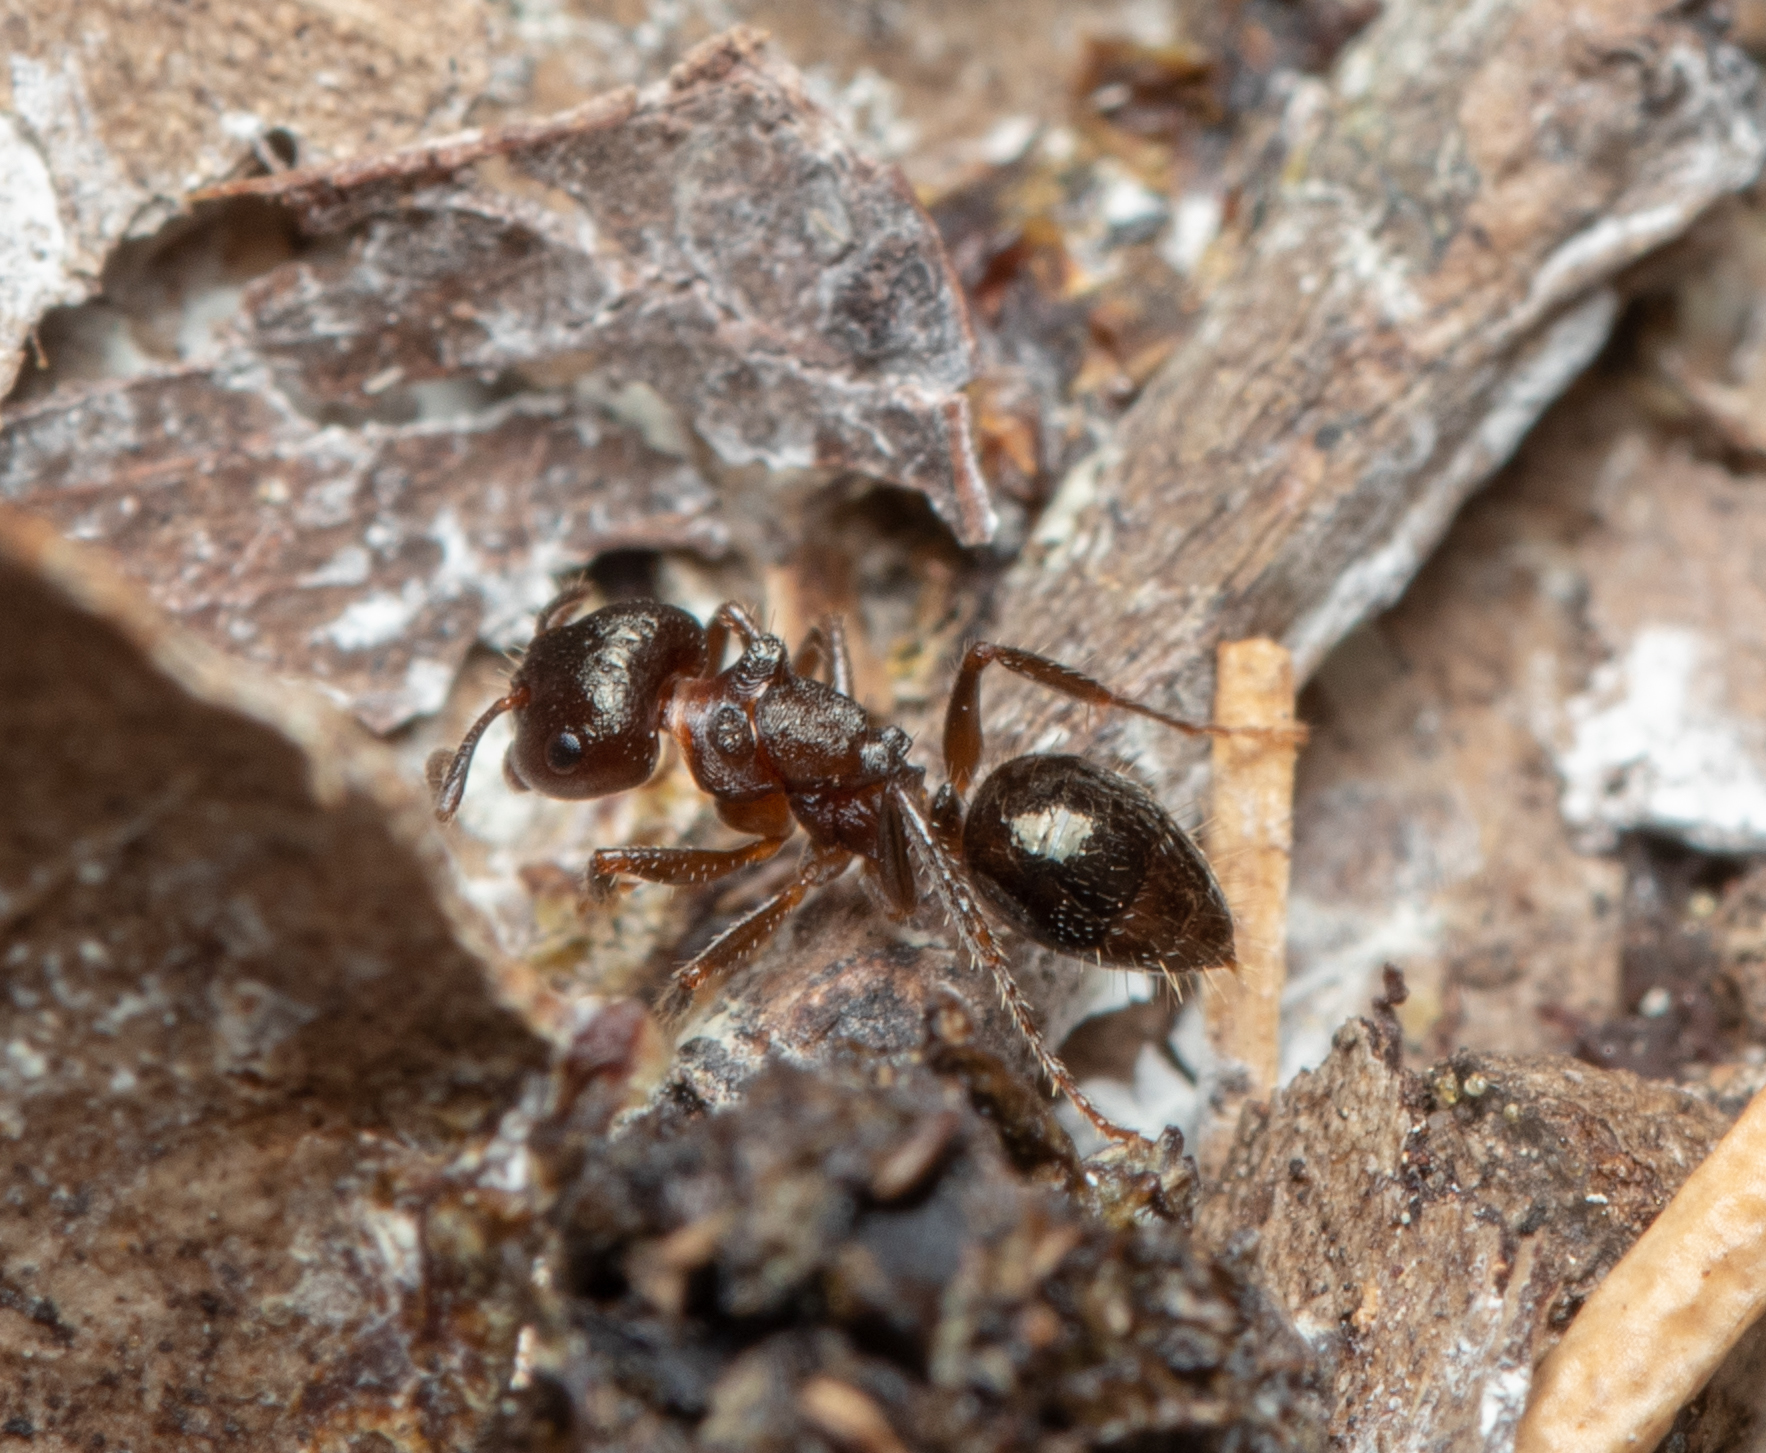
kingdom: Animalia
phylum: Arthropoda
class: Insecta
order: Hymenoptera
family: Formicidae
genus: Notoncus
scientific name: Notoncus ectatommoides
